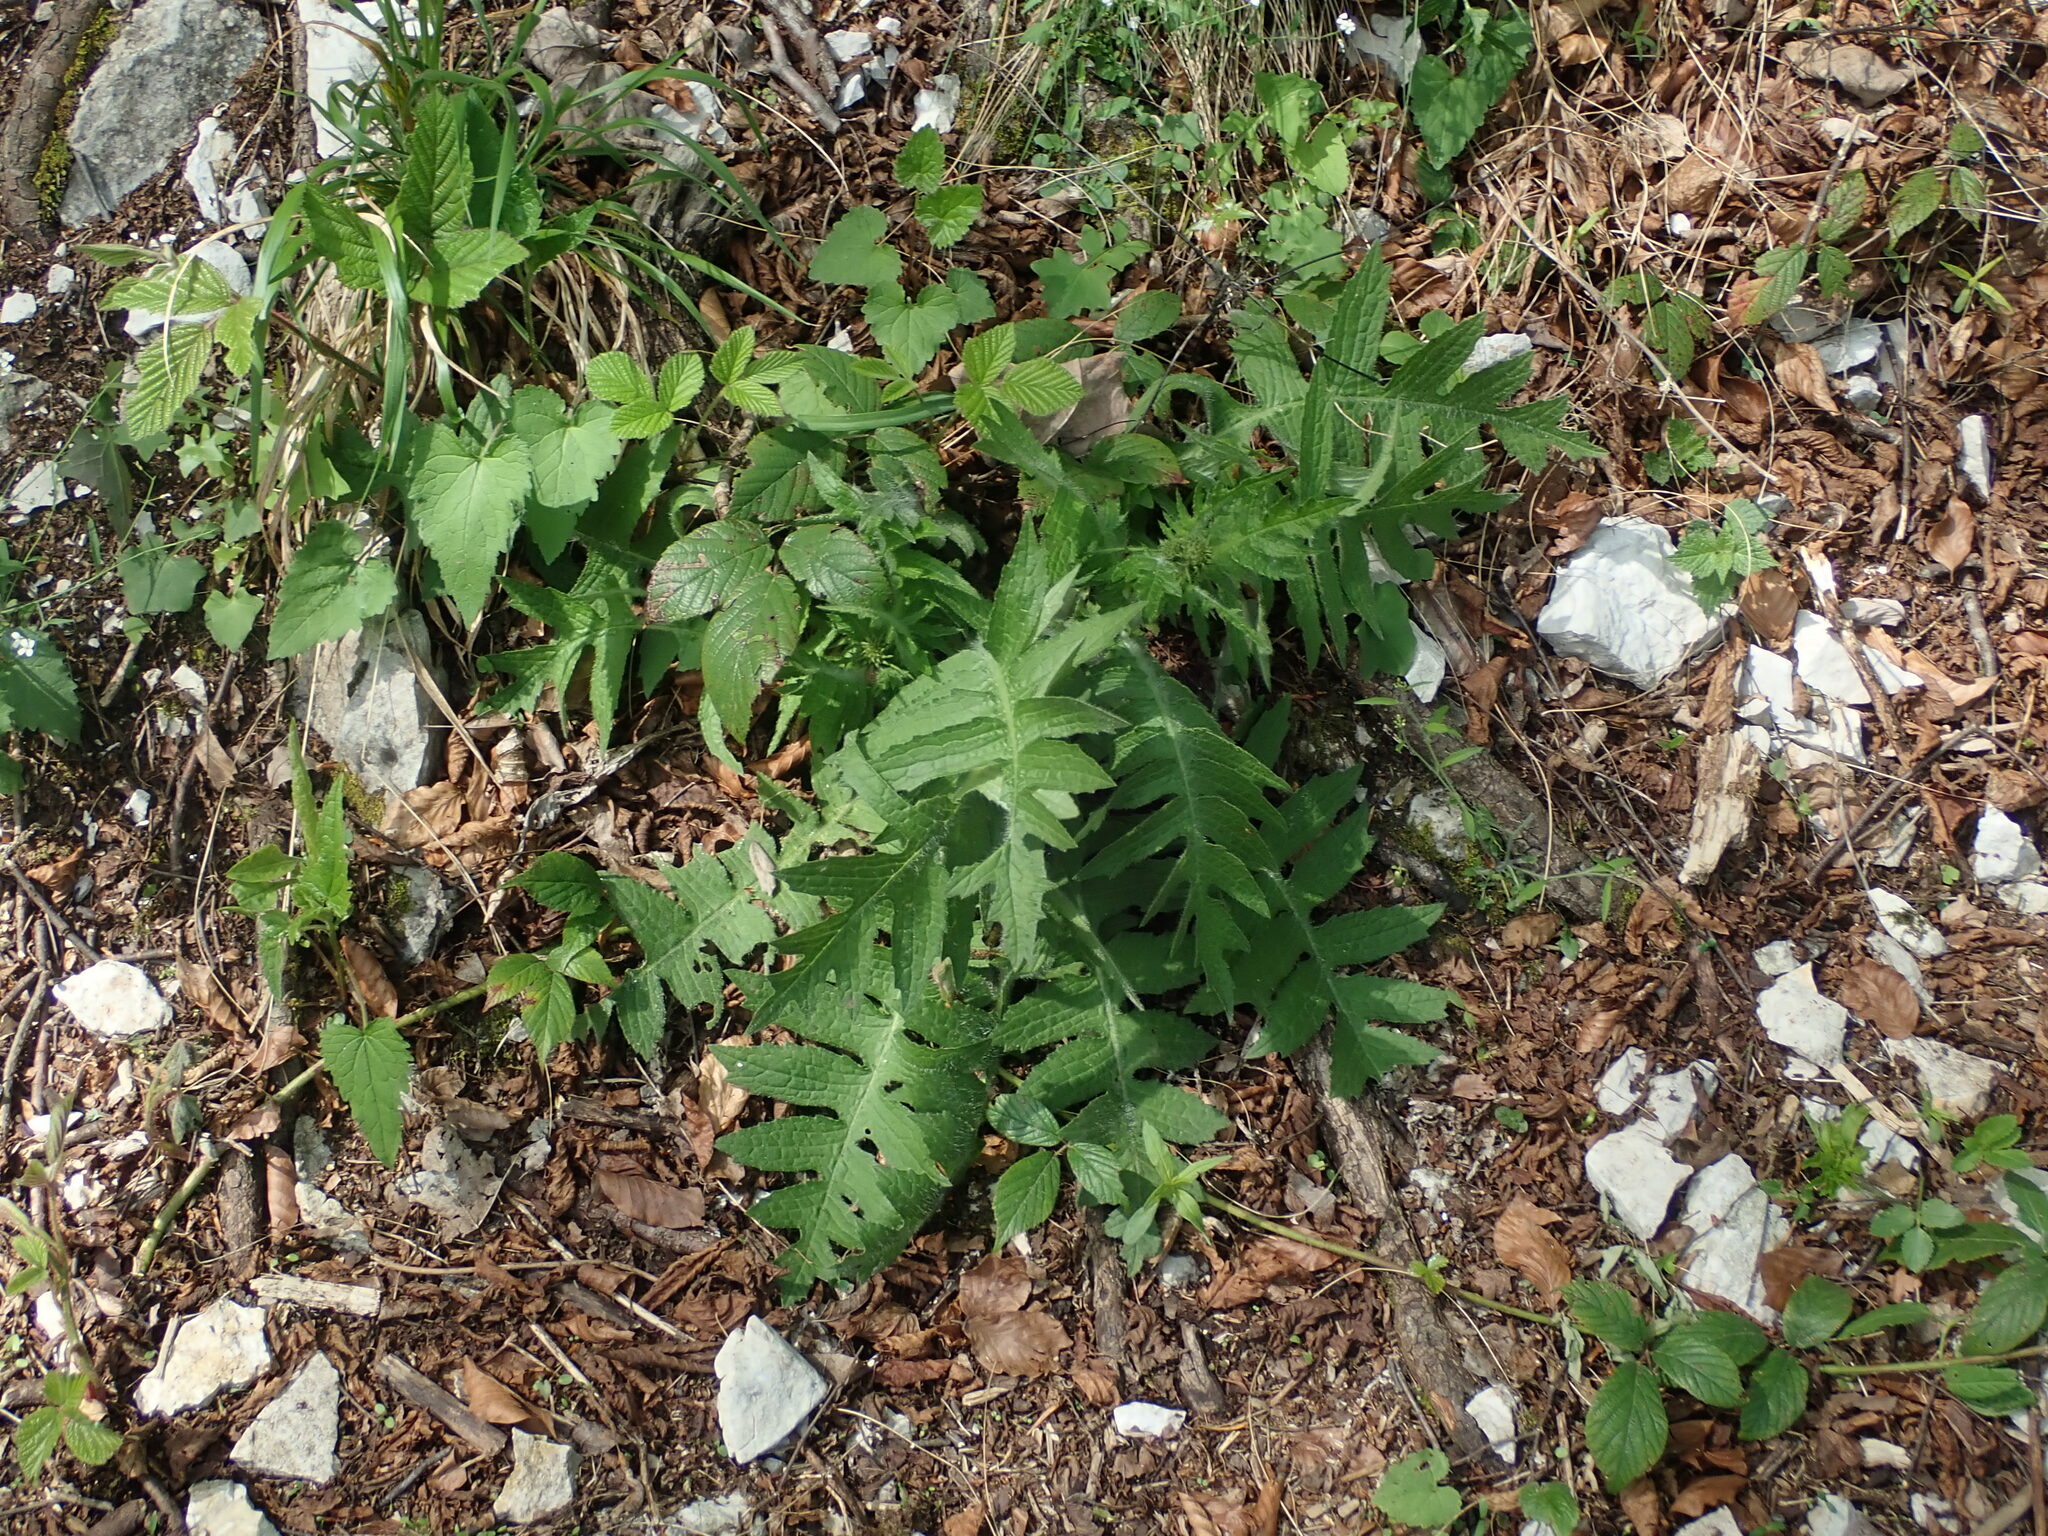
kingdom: Plantae
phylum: Tracheophyta
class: Magnoliopsida
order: Asterales
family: Asteraceae
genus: Cirsium
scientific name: Cirsium erisithales
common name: Yellow thistle
